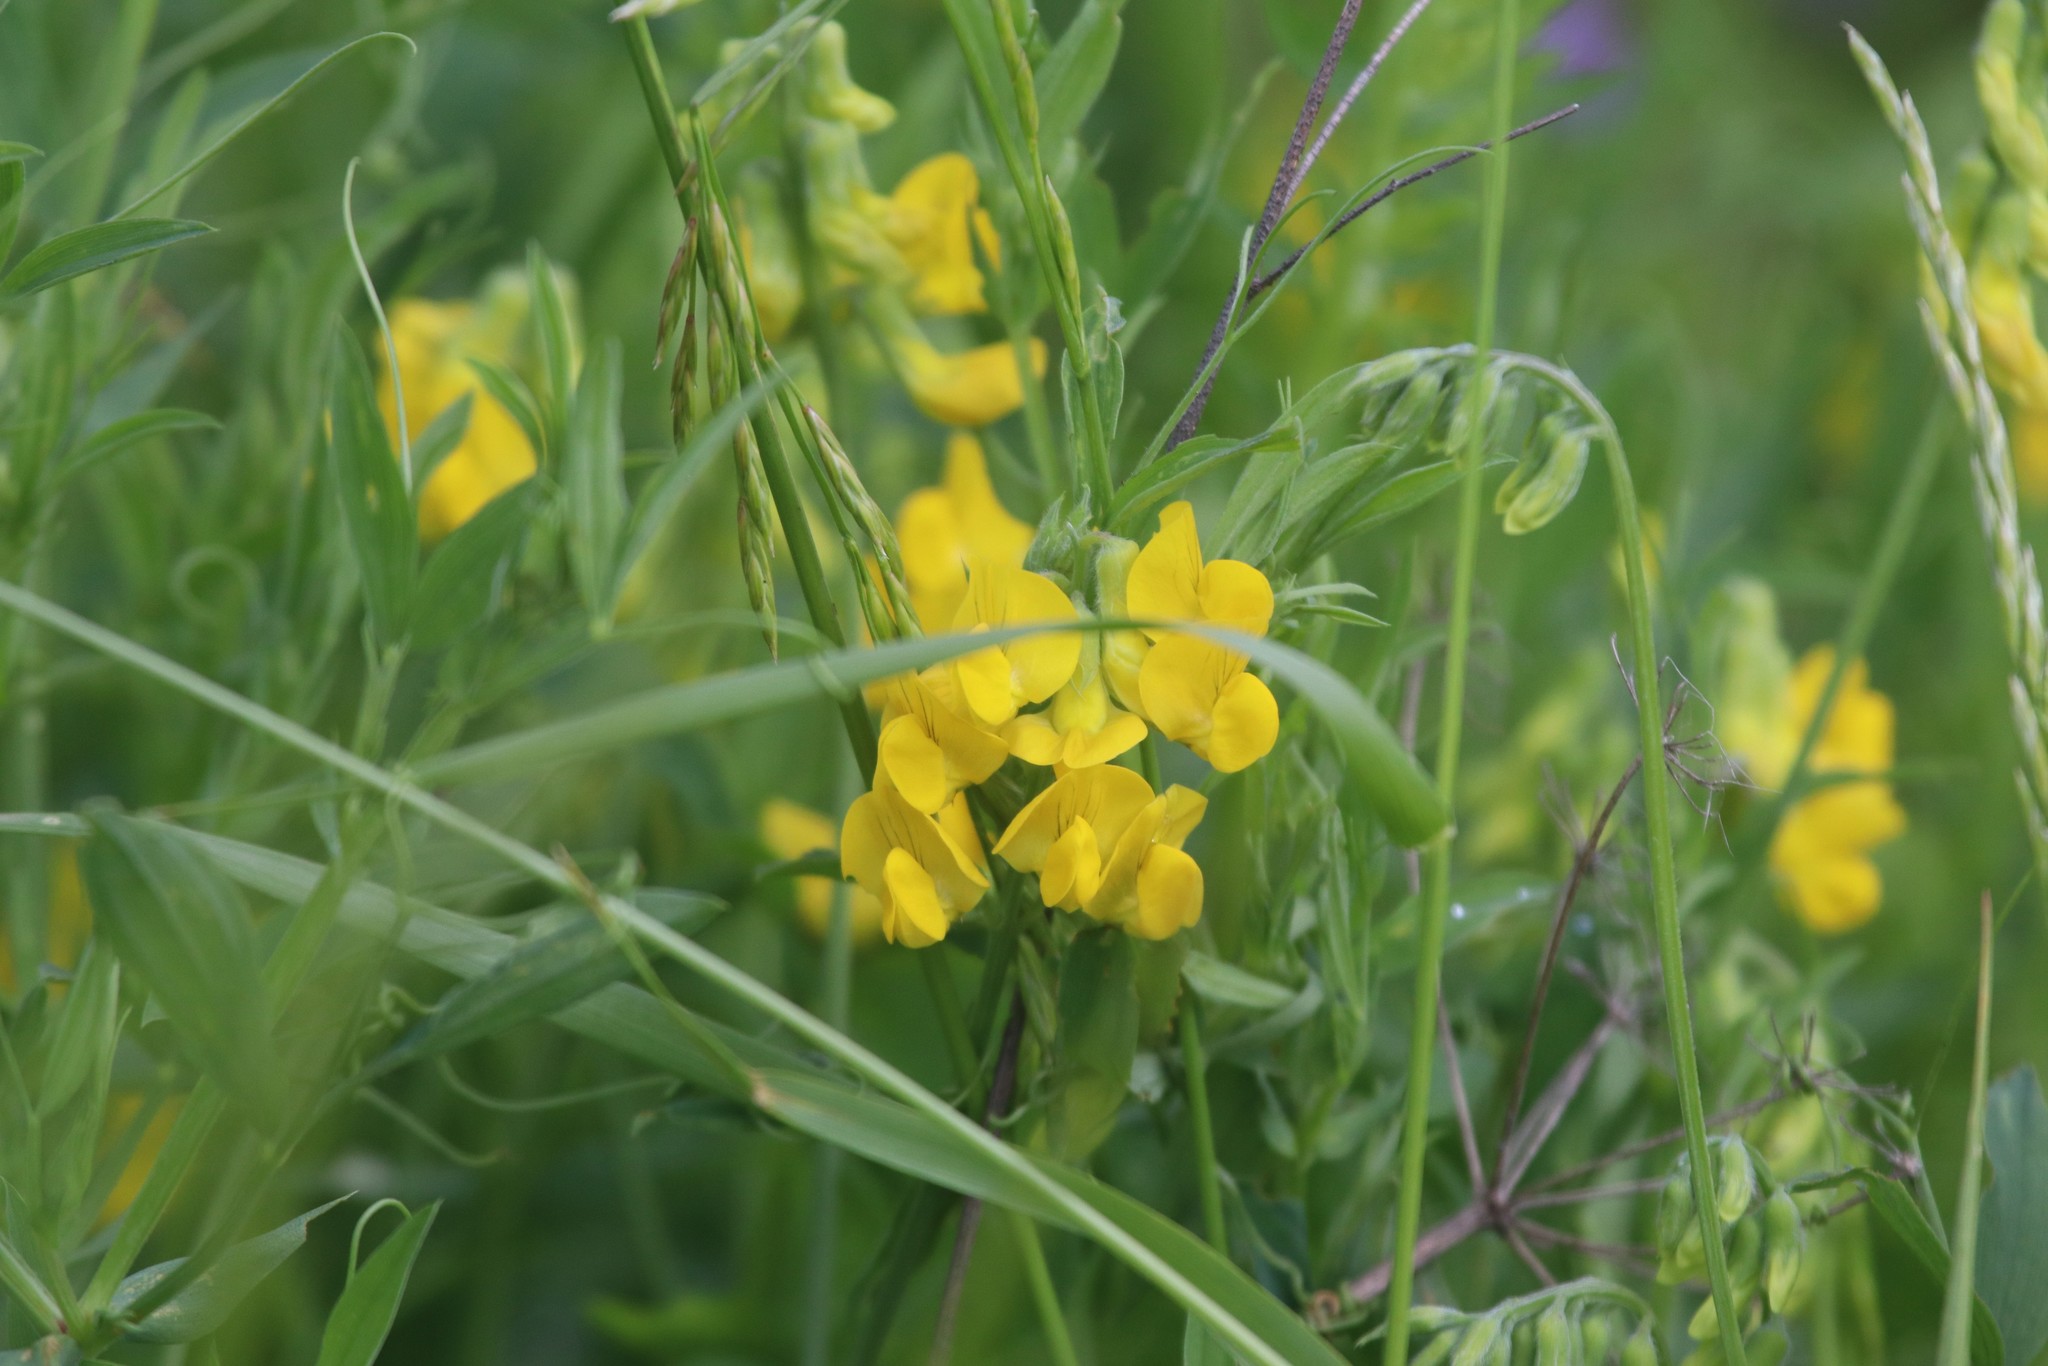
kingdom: Plantae
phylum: Tracheophyta
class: Magnoliopsida
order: Fabales
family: Fabaceae
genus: Lathyrus
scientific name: Lathyrus pratensis
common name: Meadow vetchling
